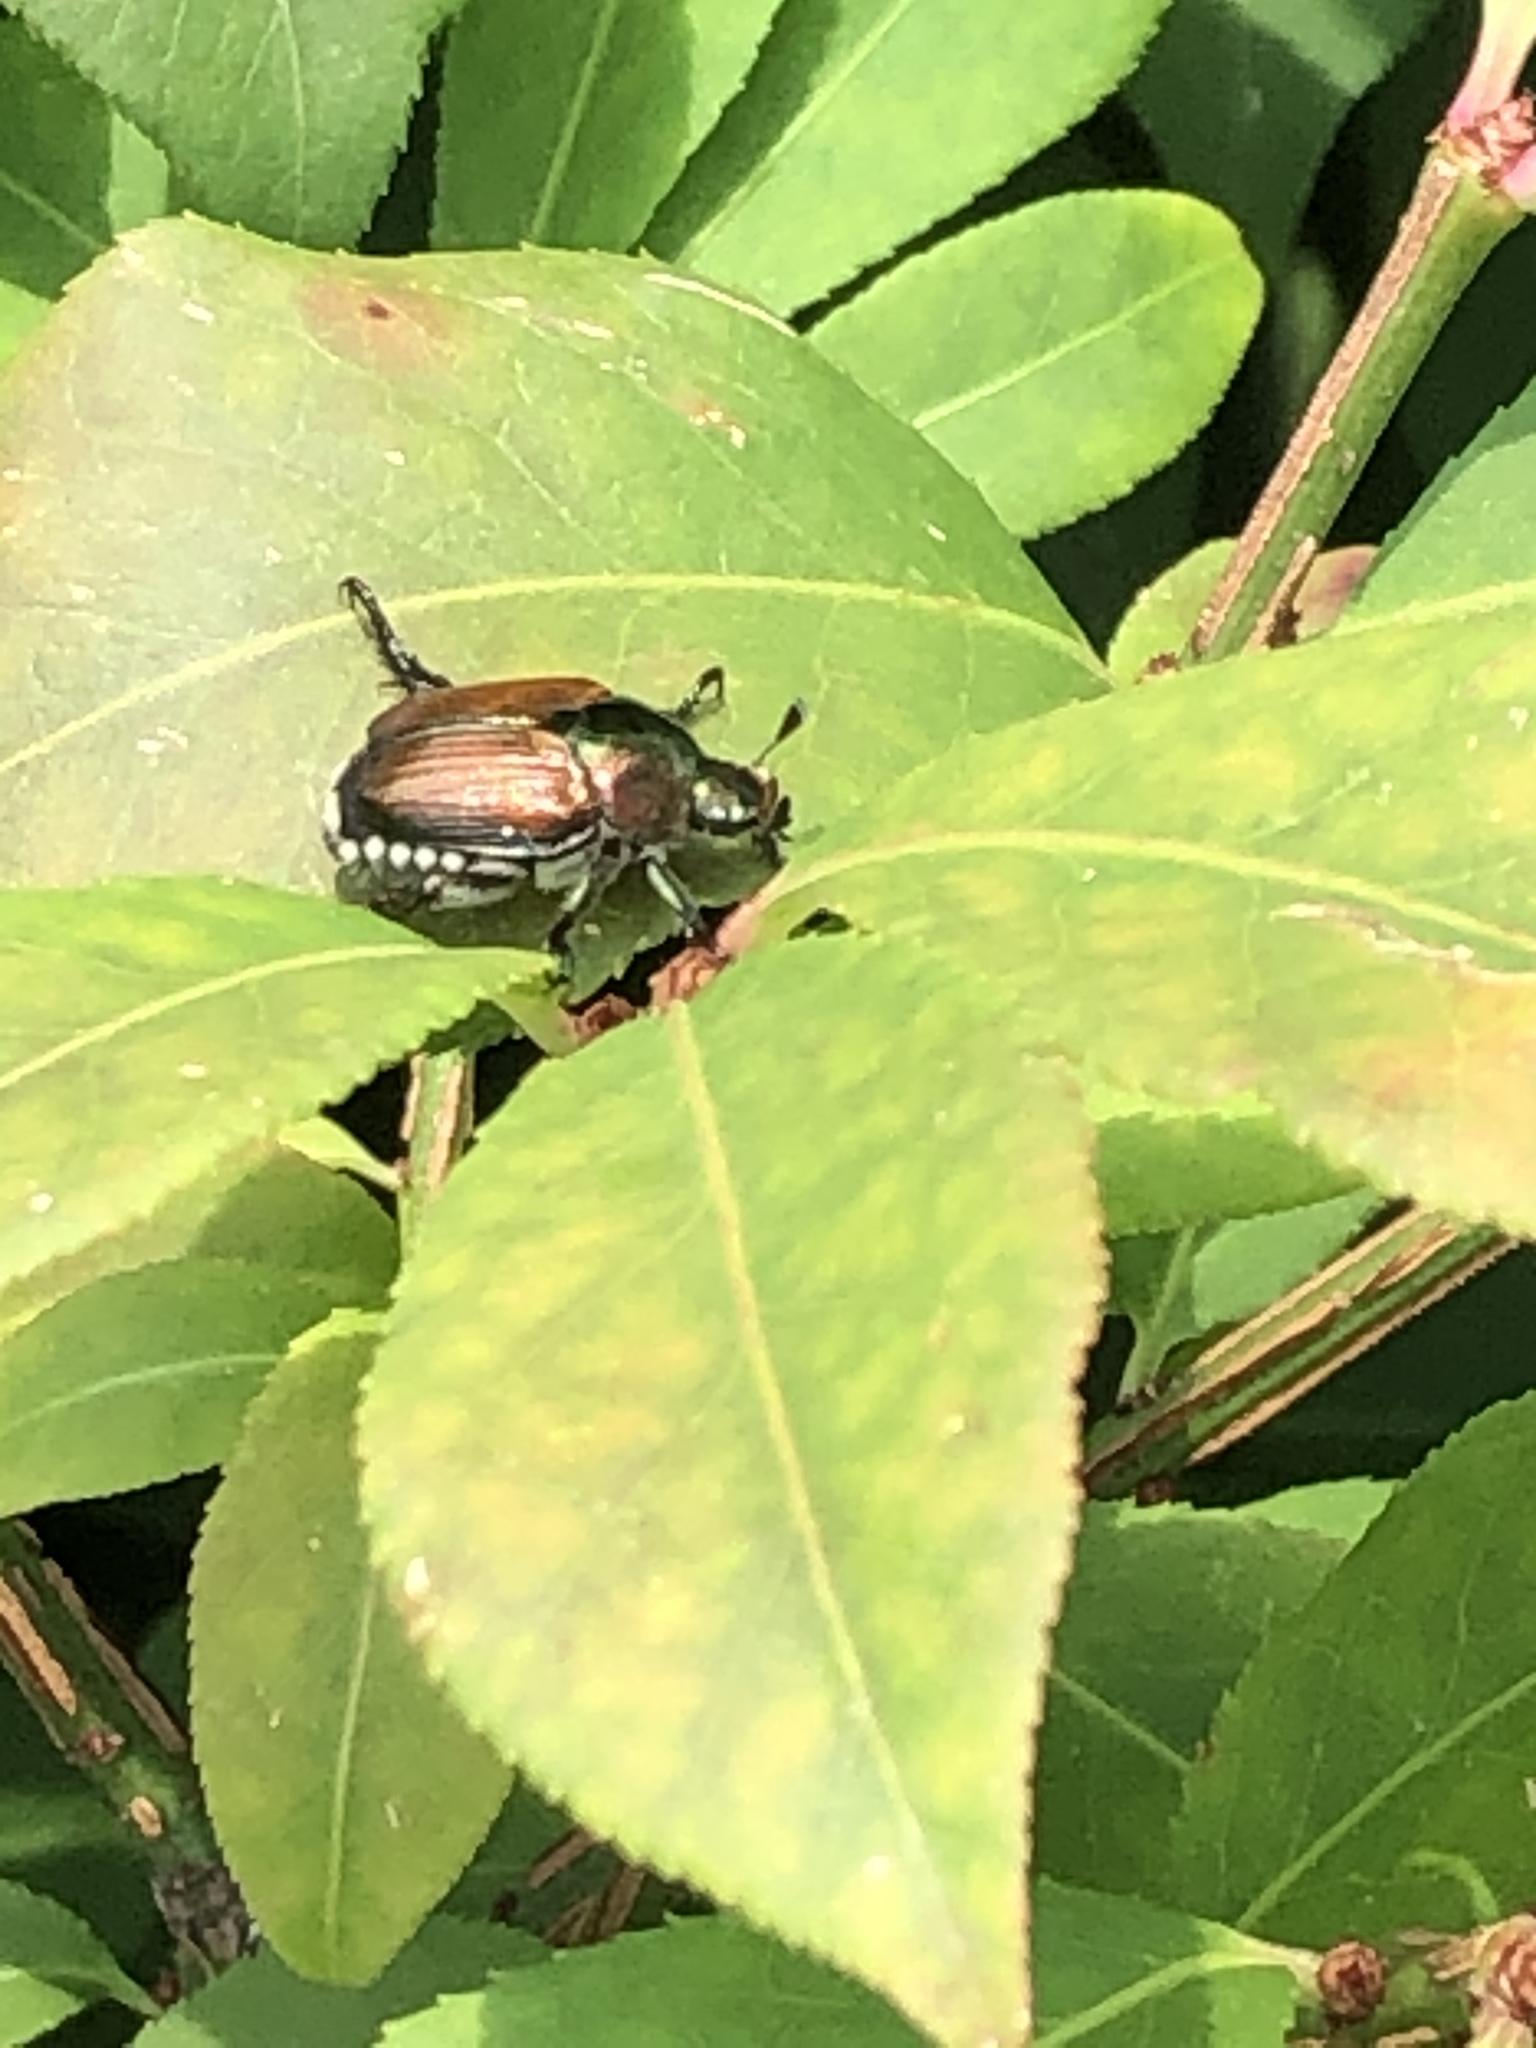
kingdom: Animalia
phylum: Arthropoda
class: Insecta
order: Coleoptera
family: Scarabaeidae
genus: Popillia
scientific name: Popillia japonica
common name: Japanese beetle
